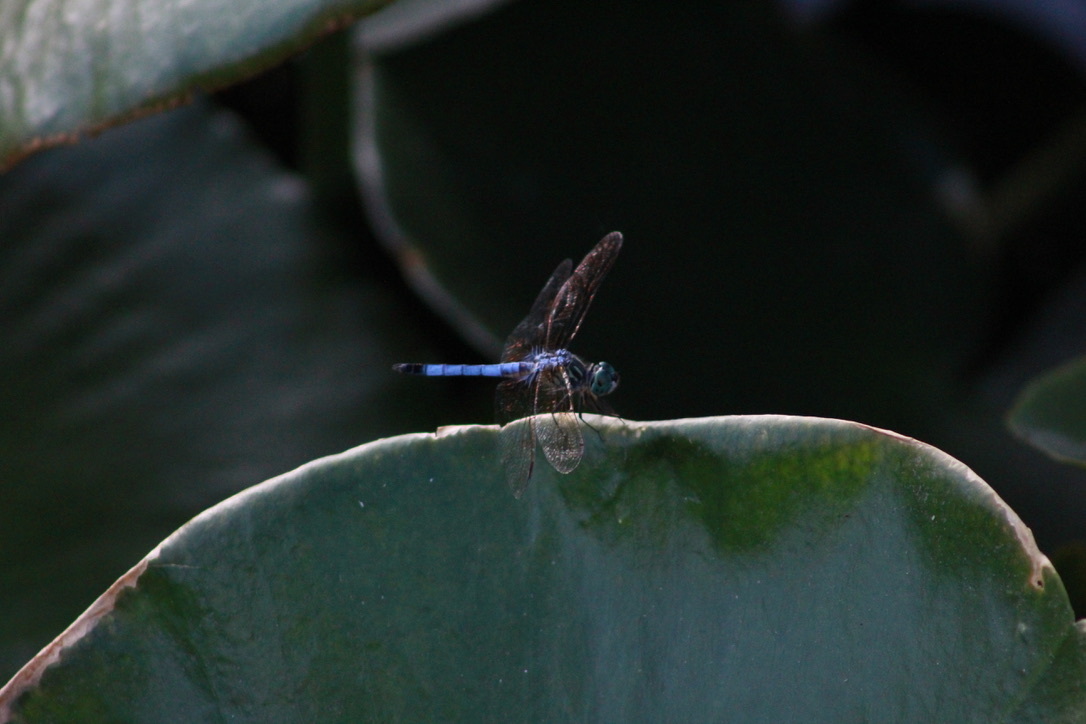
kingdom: Animalia
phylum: Arthropoda
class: Insecta
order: Odonata
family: Libellulidae
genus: Pachydiplax
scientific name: Pachydiplax longipennis
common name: Blue dasher
